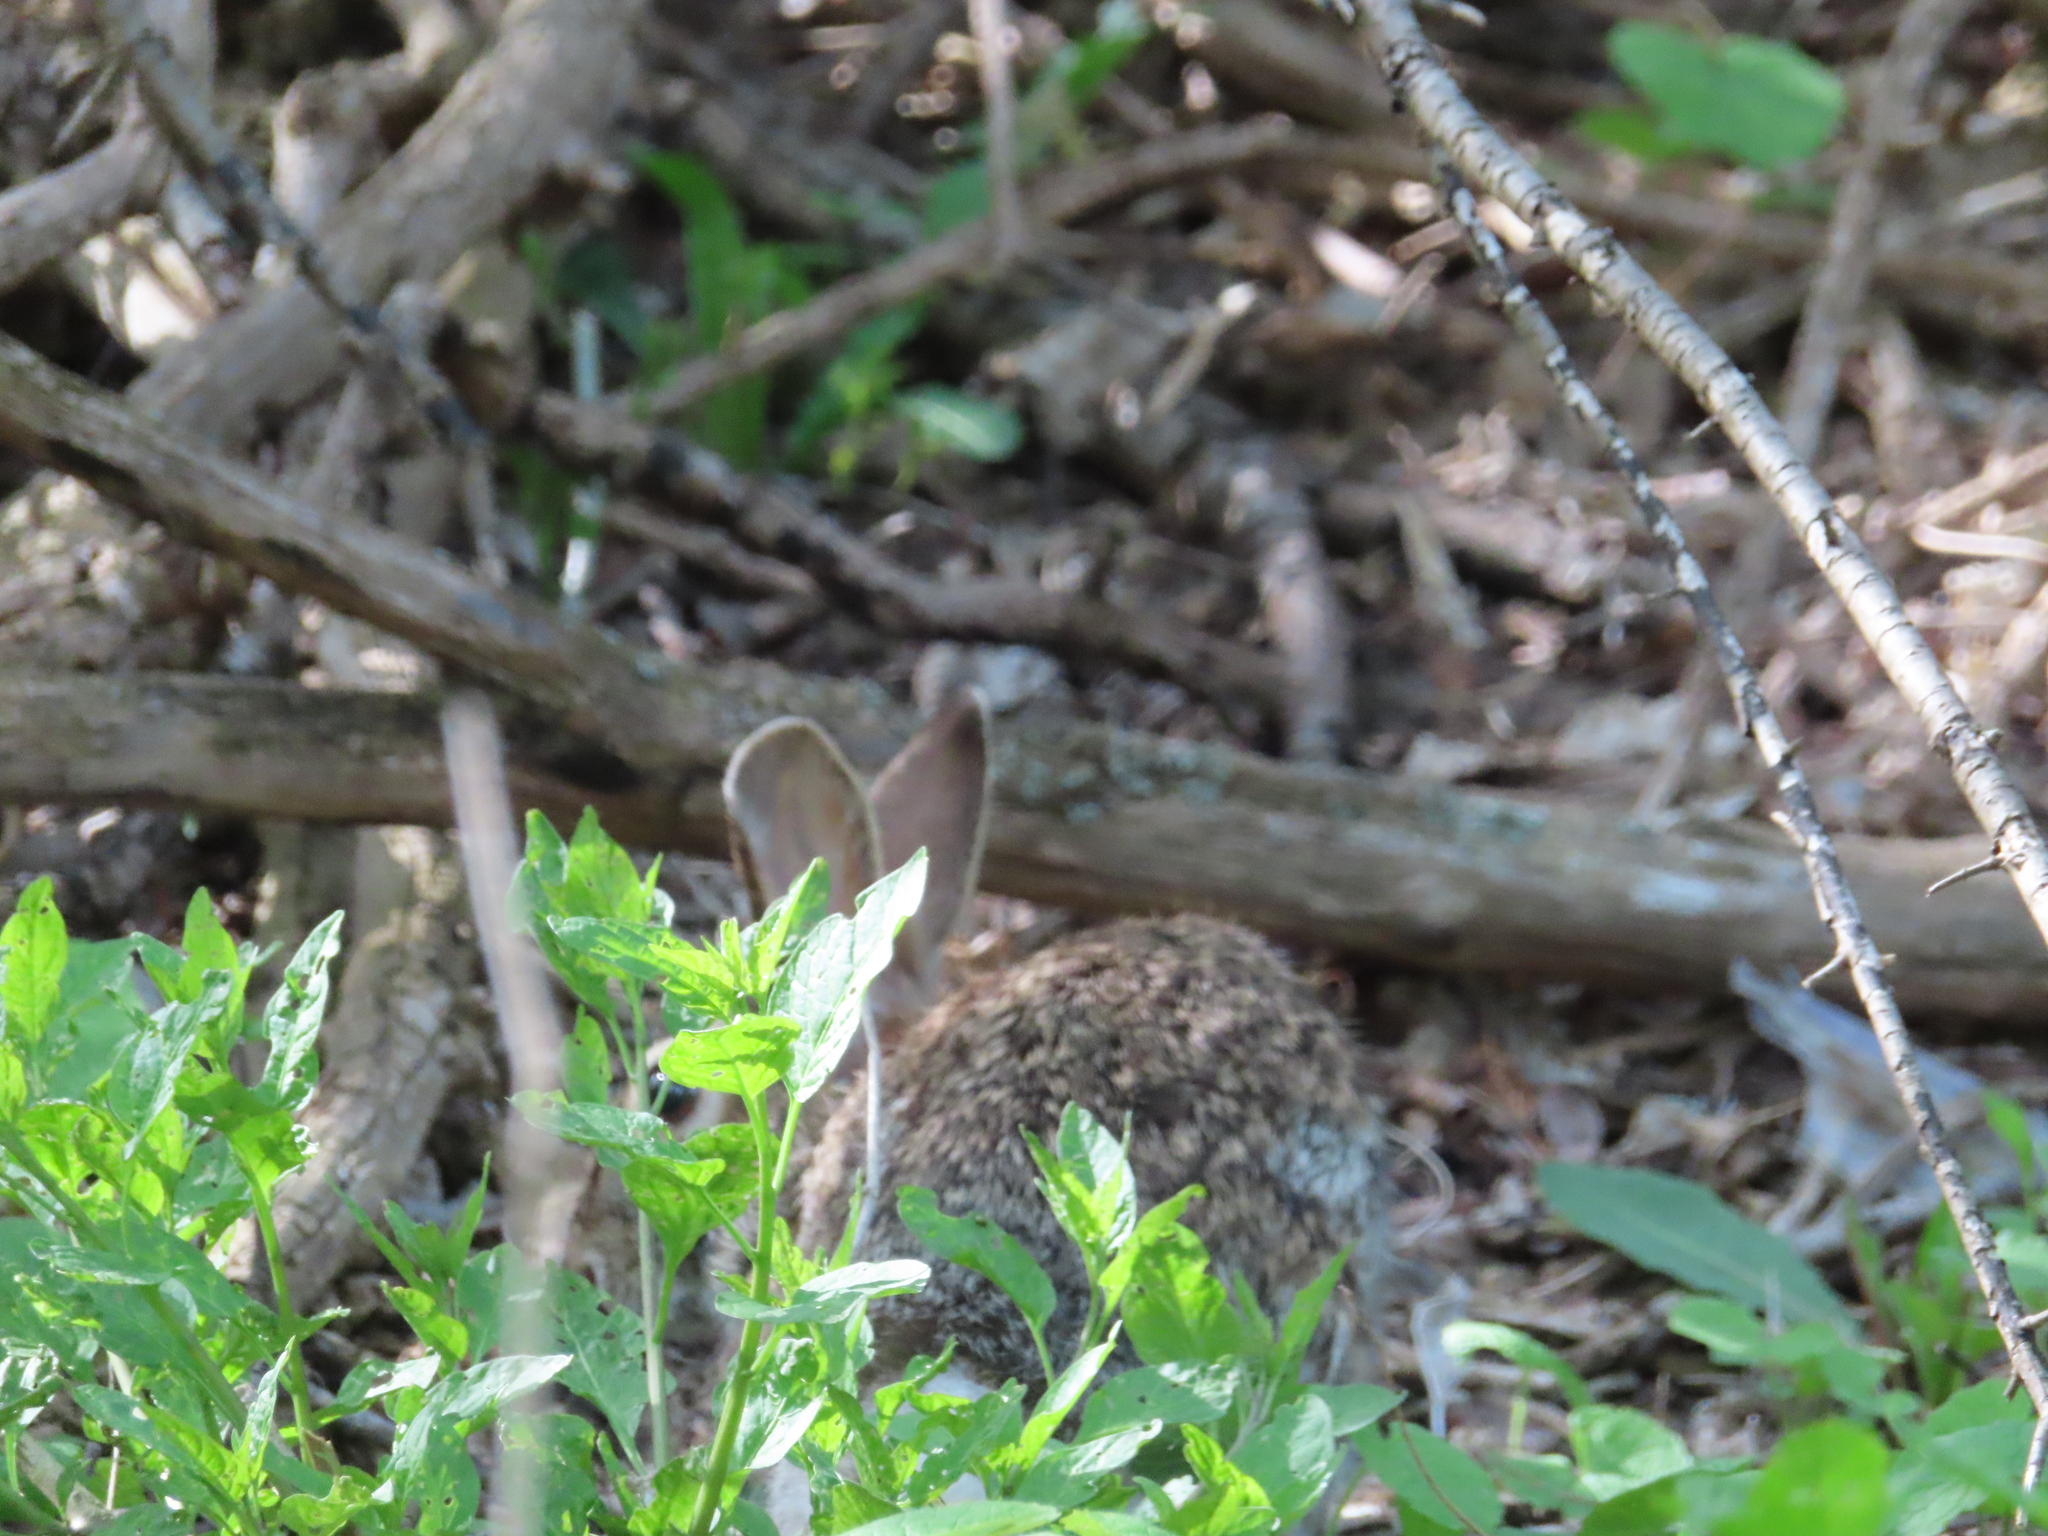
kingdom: Animalia
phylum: Chordata
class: Mammalia
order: Lagomorpha
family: Leporidae
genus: Sylvilagus
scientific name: Sylvilagus floridanus
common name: Eastern cottontail
